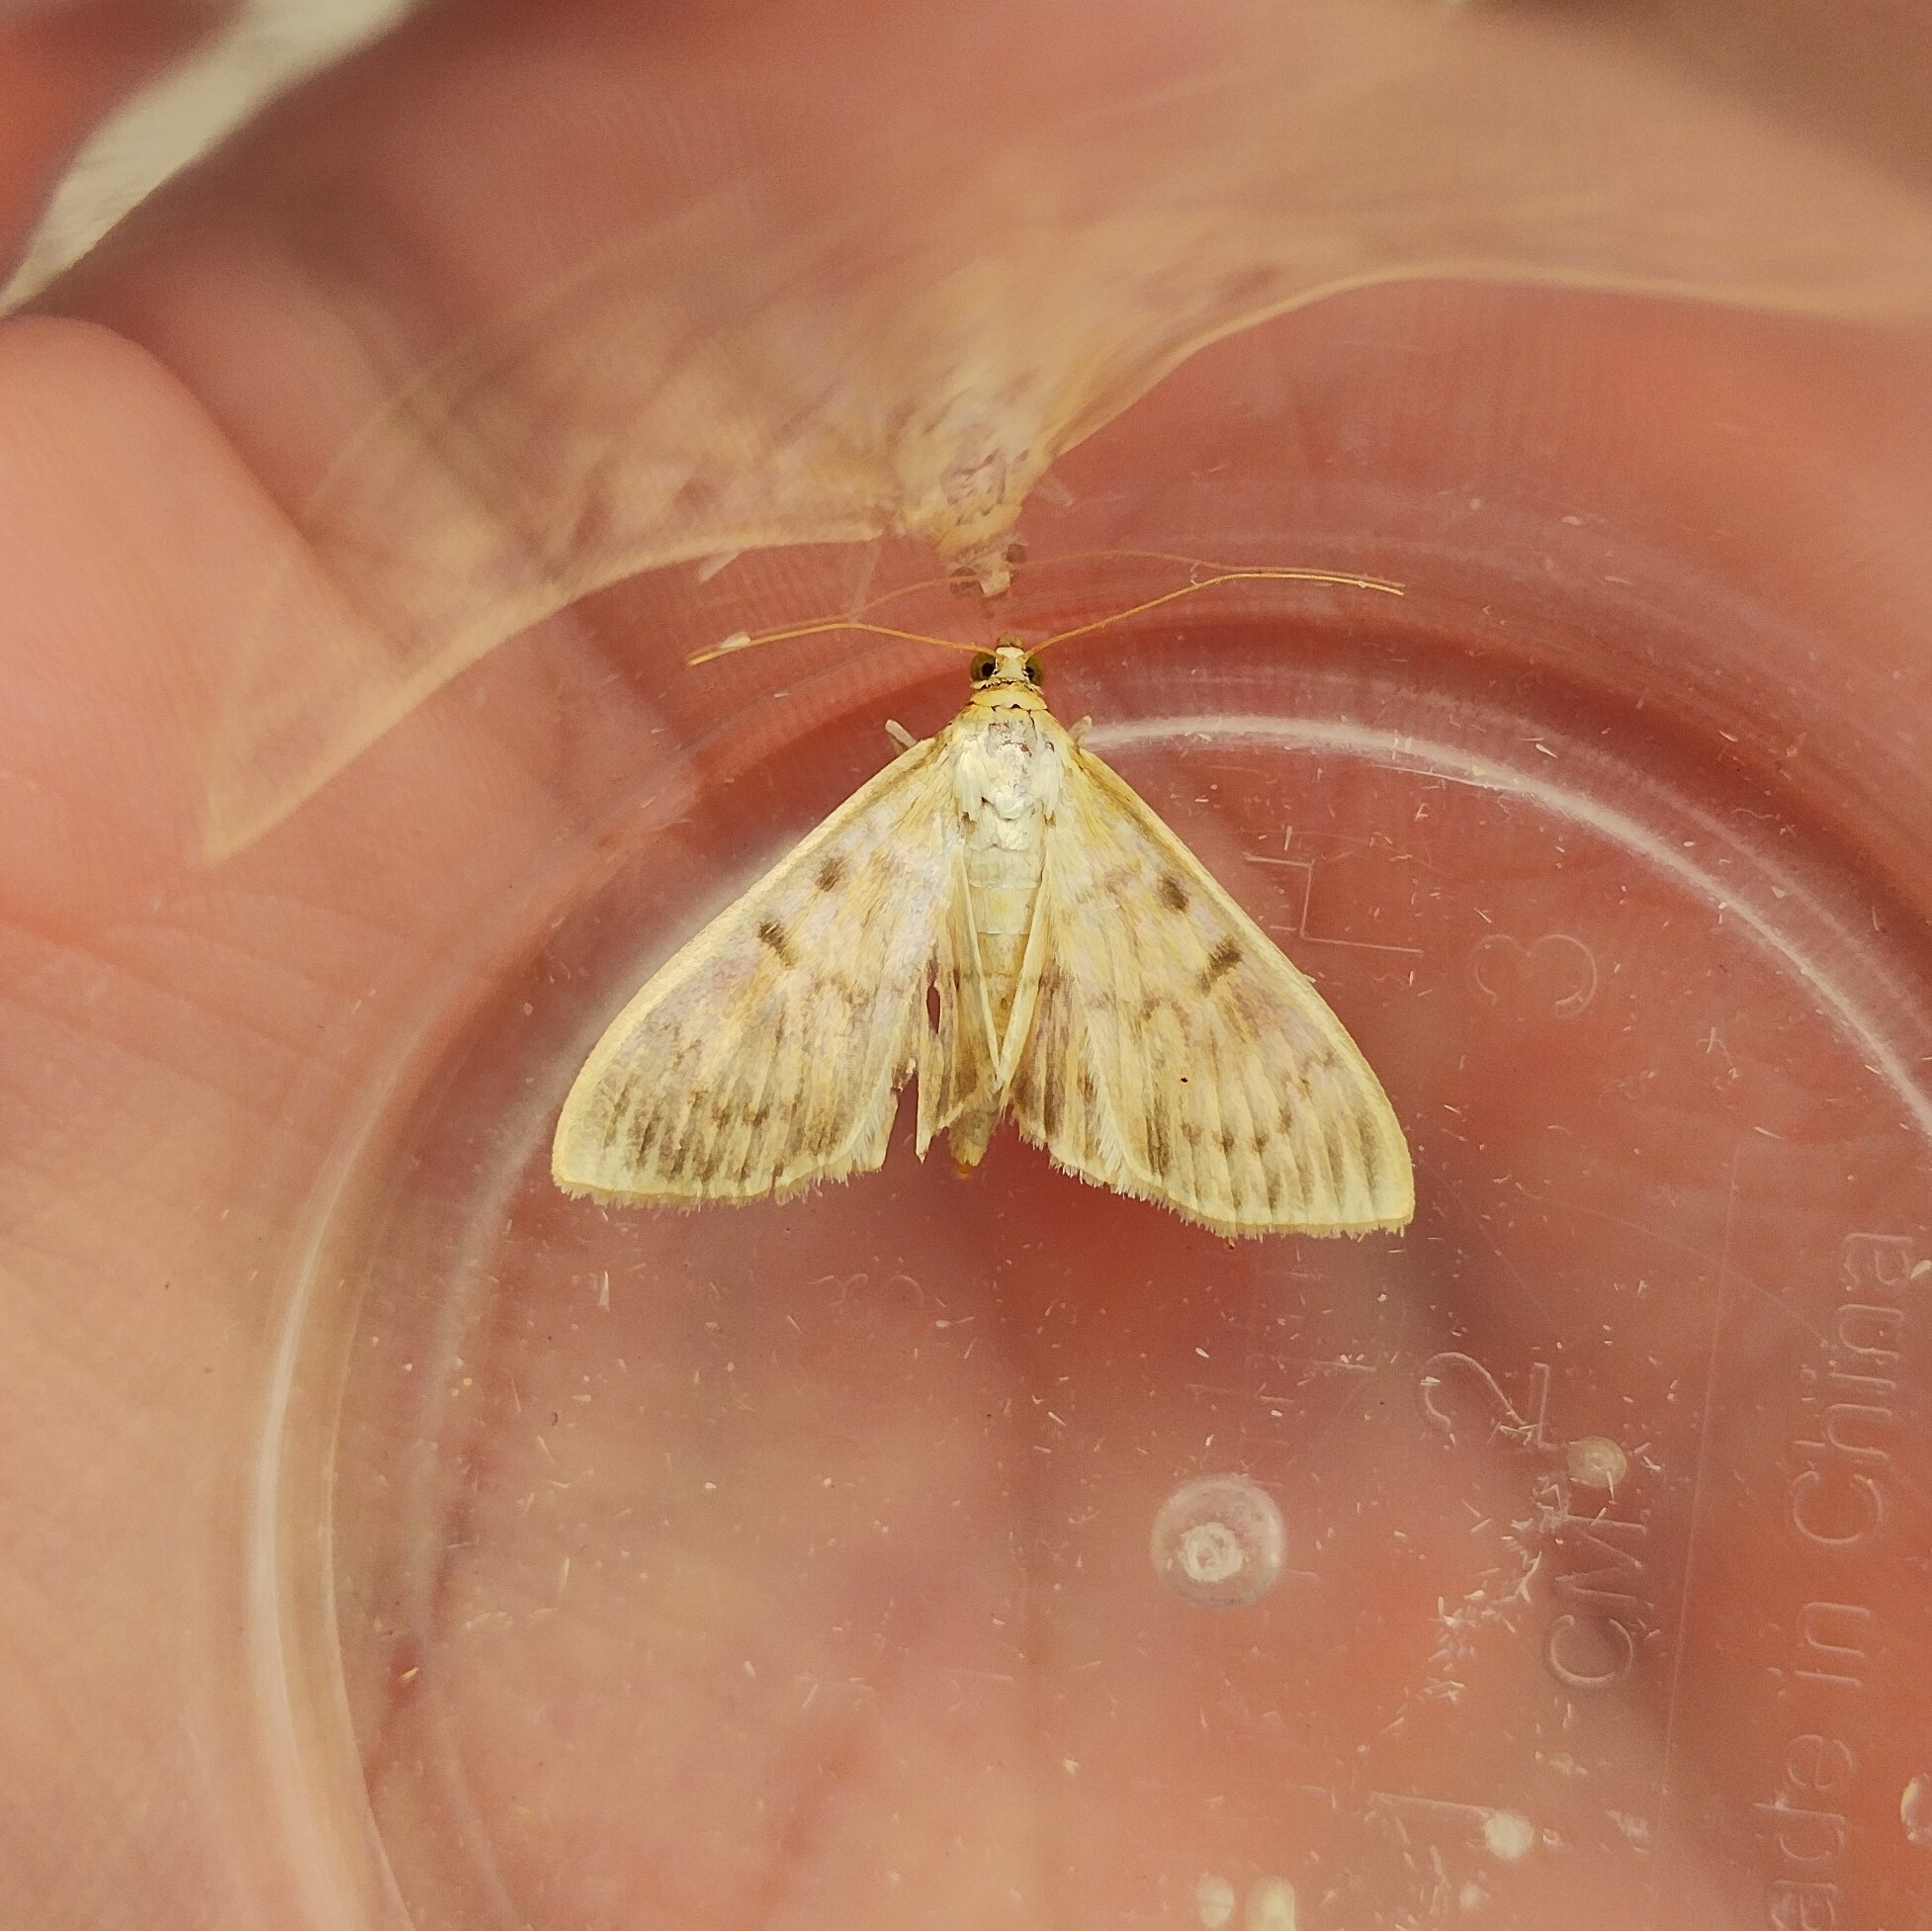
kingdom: Animalia
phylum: Arthropoda
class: Insecta
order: Lepidoptera
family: Crambidae
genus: Patania
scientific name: Patania ruralis
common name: Mother of pearl
